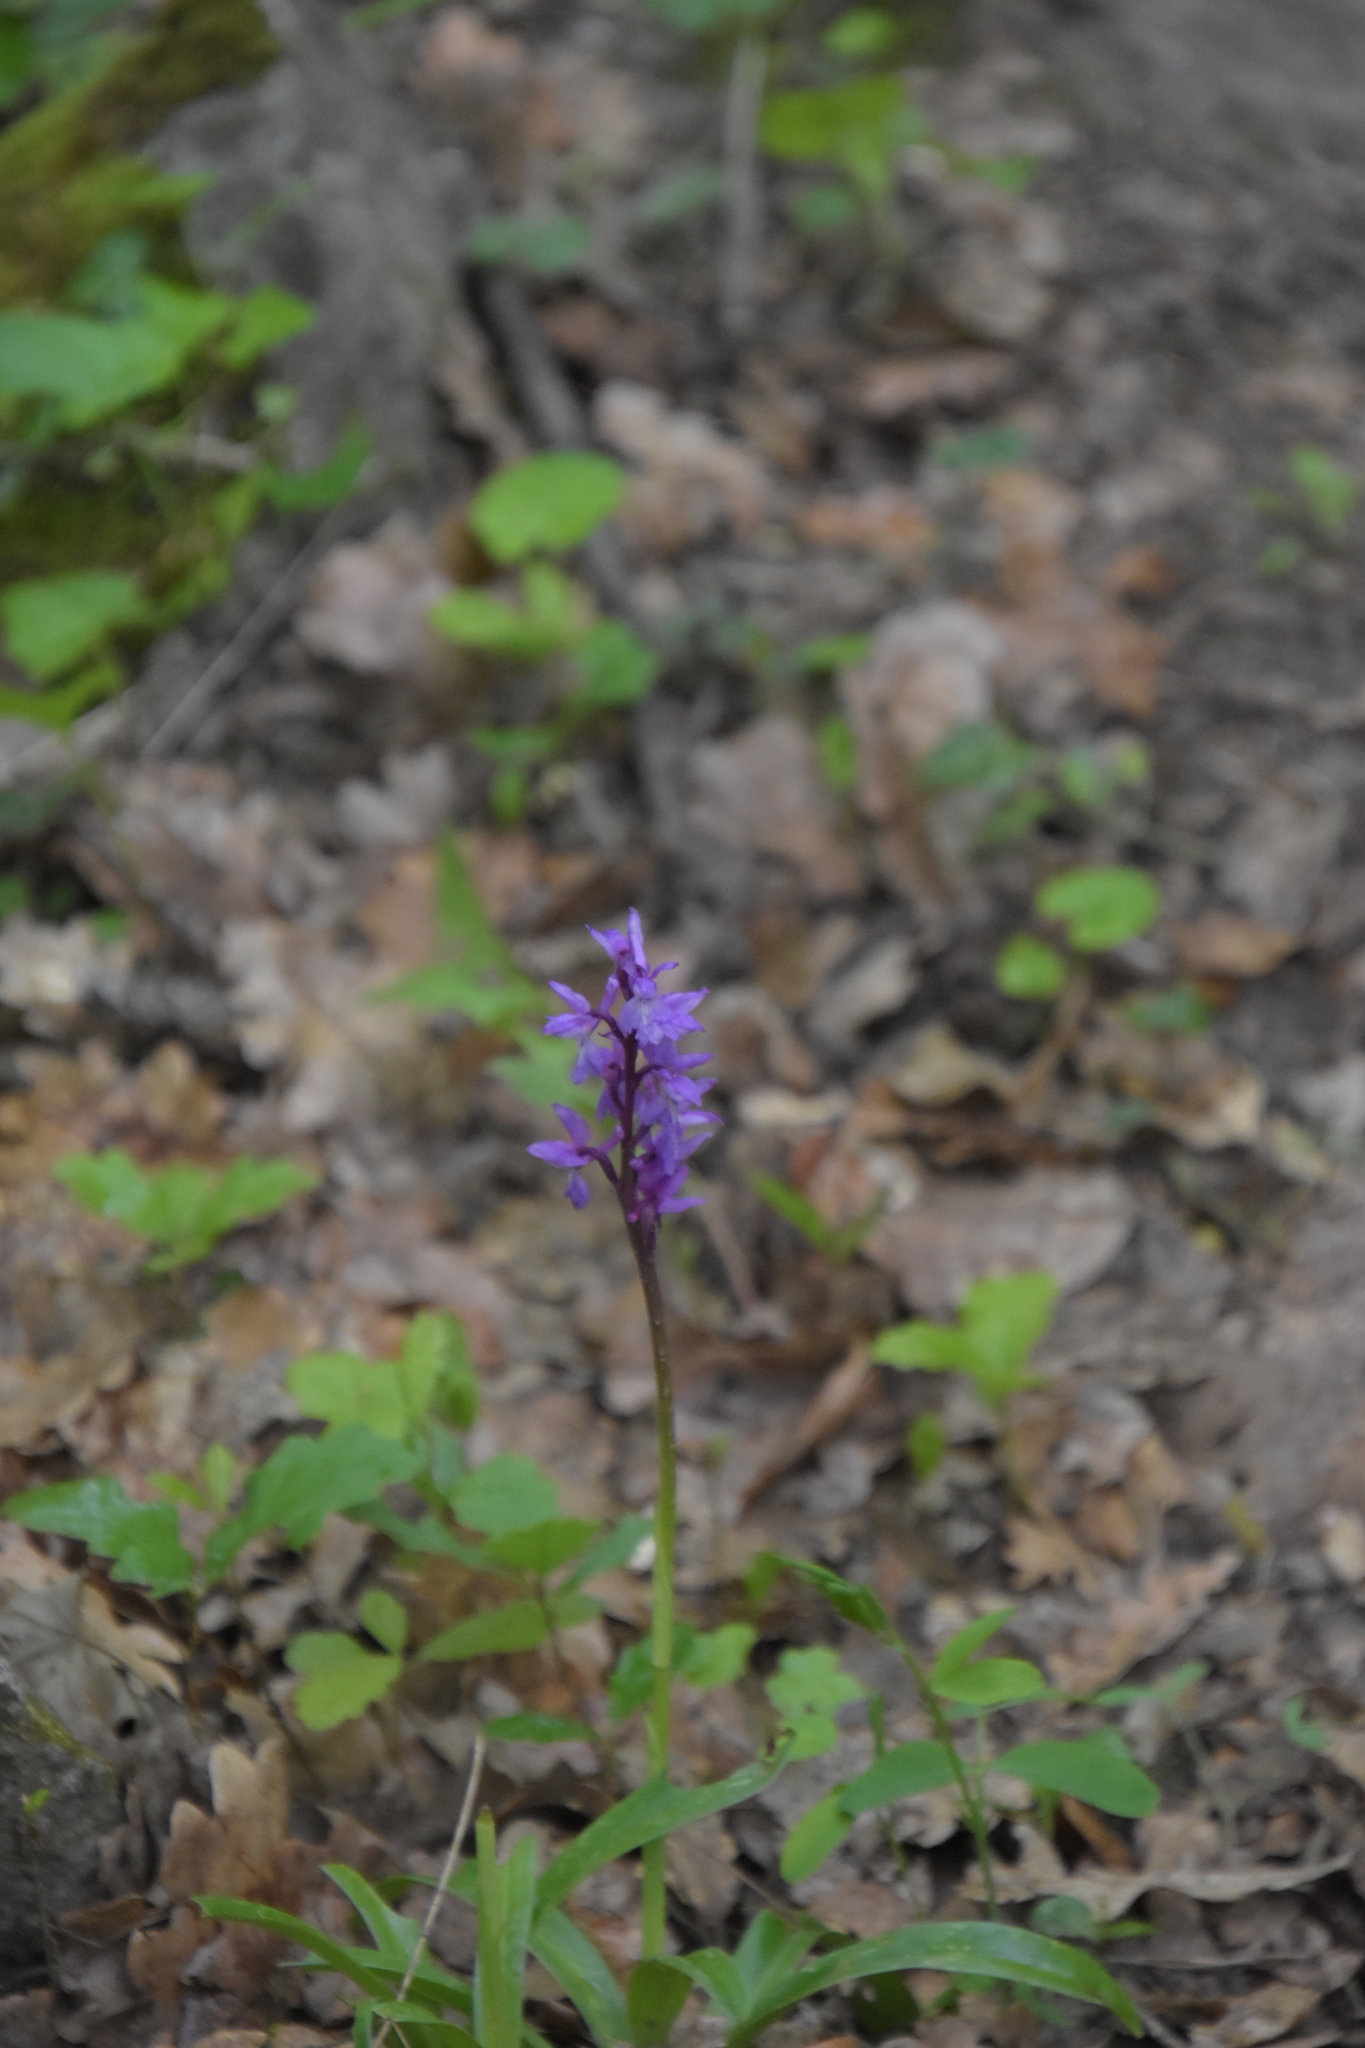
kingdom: Plantae
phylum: Tracheophyta
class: Liliopsida
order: Asparagales
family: Orchidaceae
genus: Orchis
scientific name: Orchis mascula
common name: Early-purple orchid
